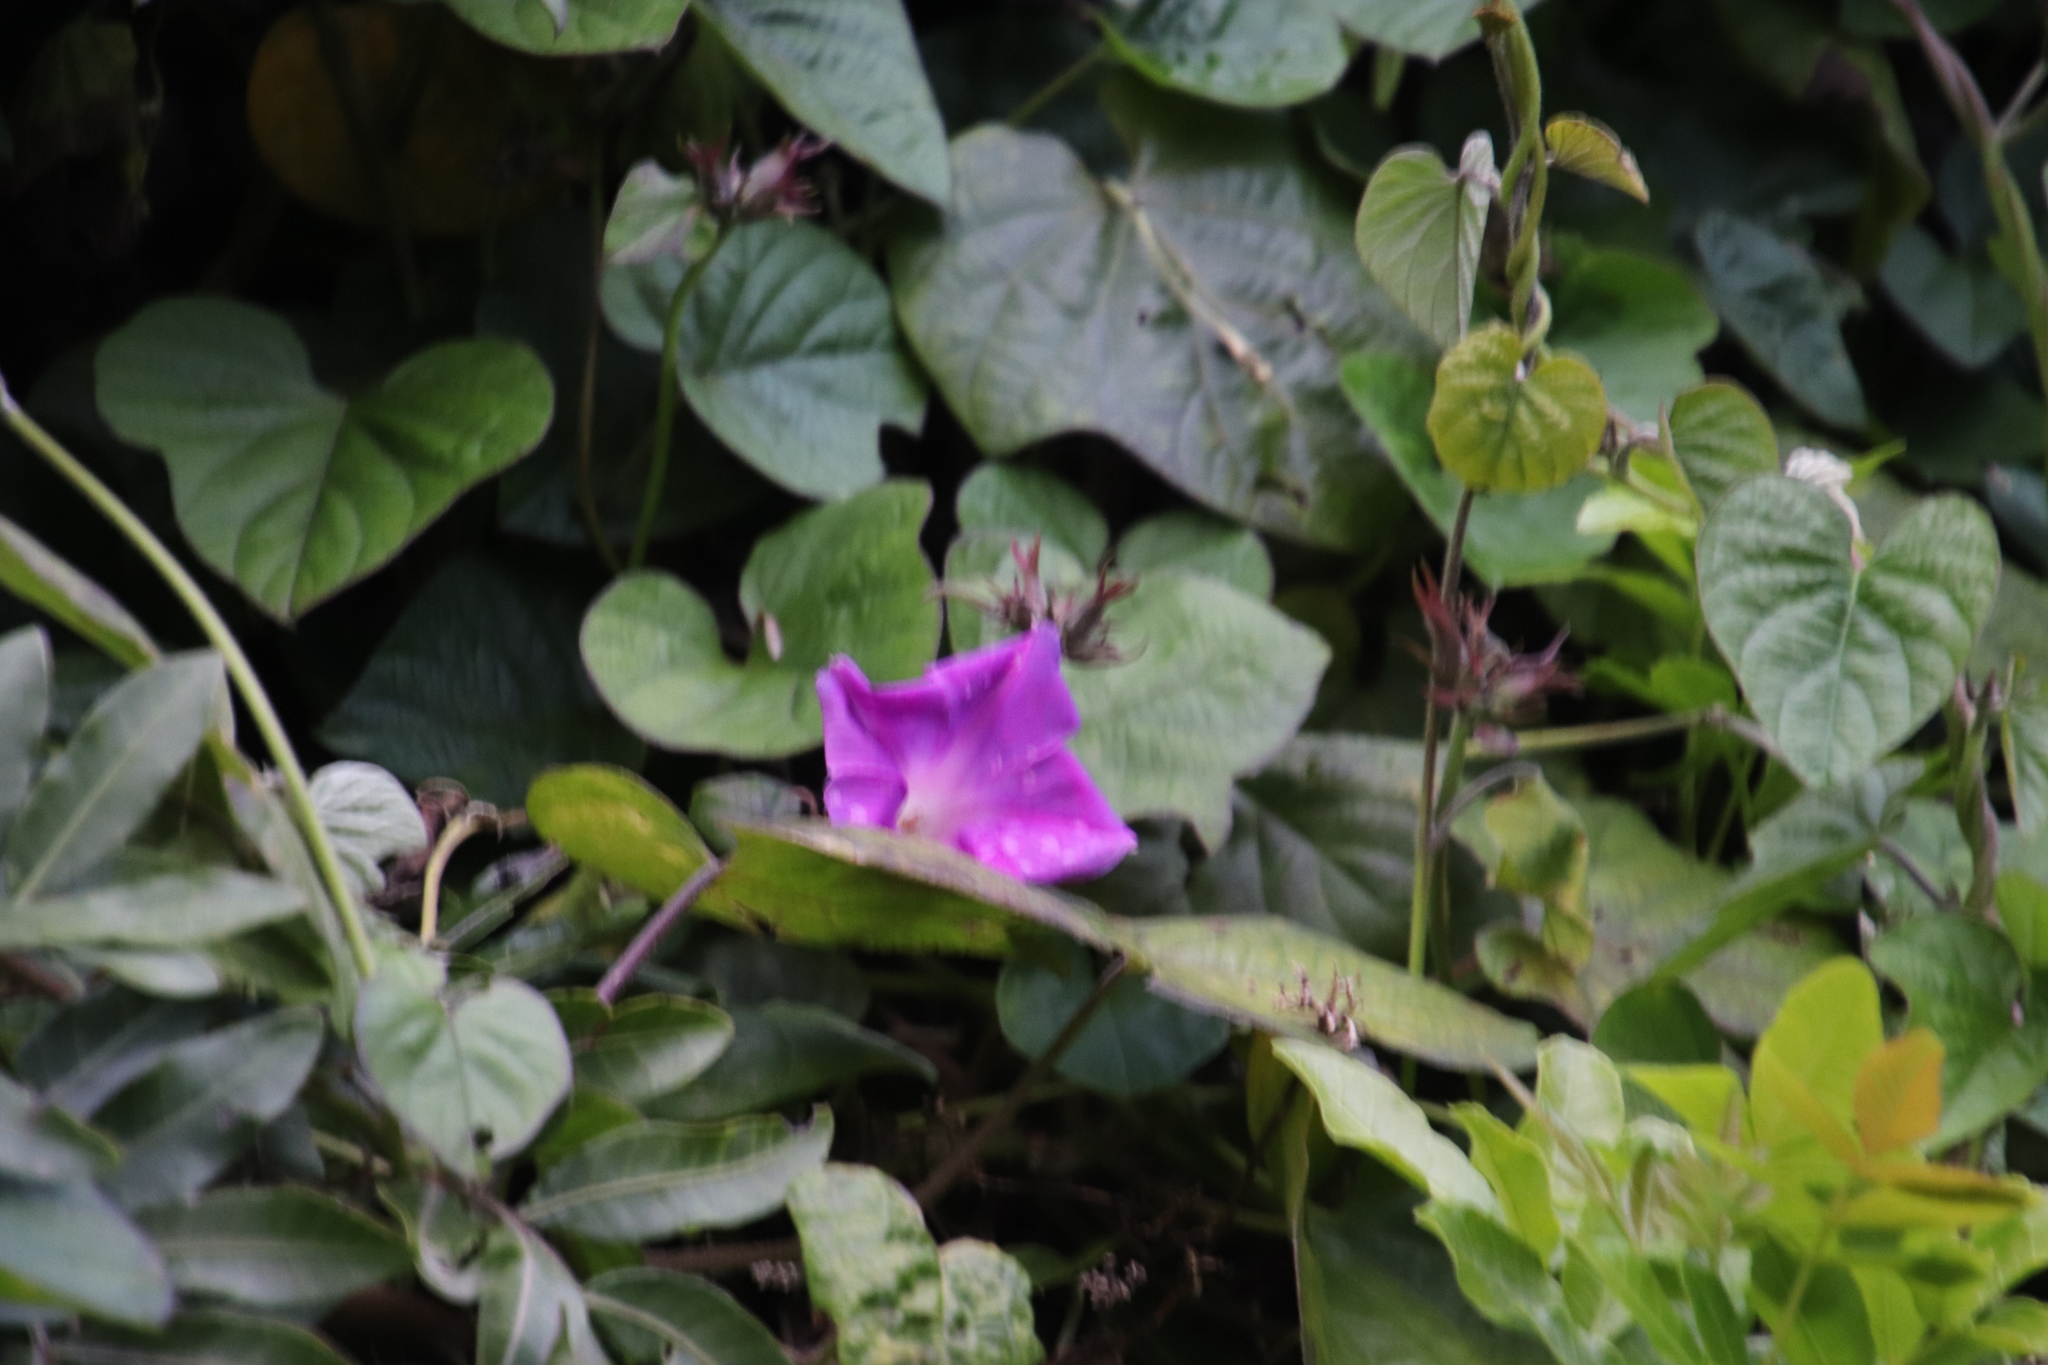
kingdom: Plantae
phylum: Tracheophyta
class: Magnoliopsida
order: Solanales
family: Convolvulaceae
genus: Ipomoea
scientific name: Ipomoea indica
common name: Blue dawnflower
